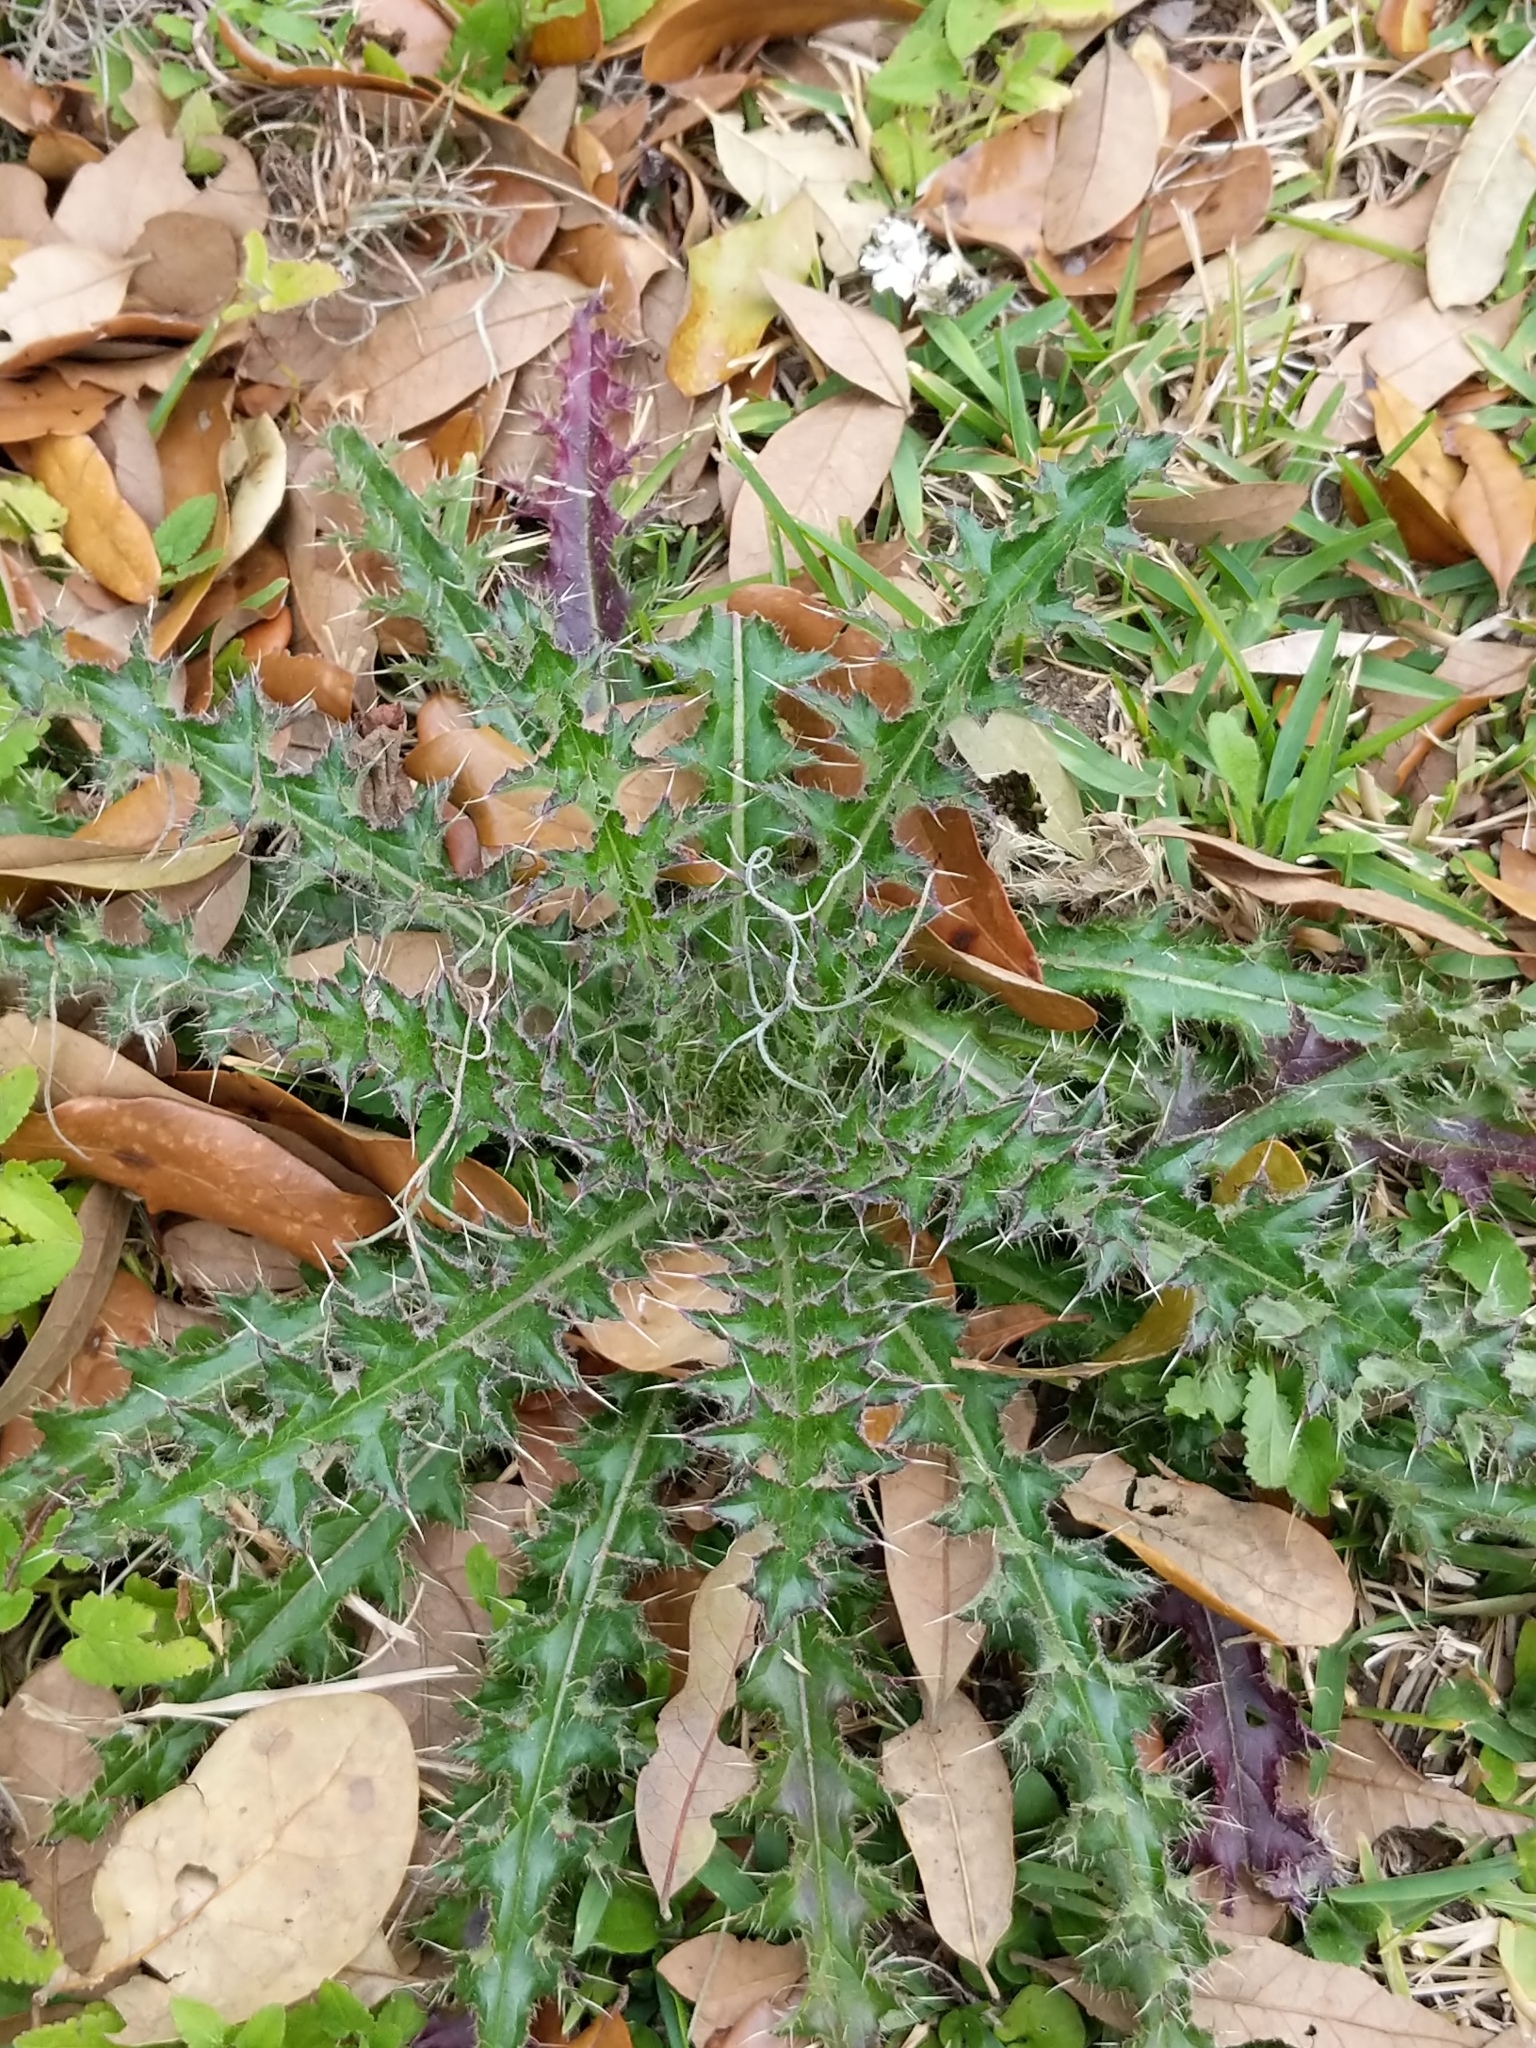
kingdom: Plantae
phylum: Tracheophyta
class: Magnoliopsida
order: Asterales
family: Asteraceae
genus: Cirsium
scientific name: Cirsium horridulum
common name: Bristly thistle
